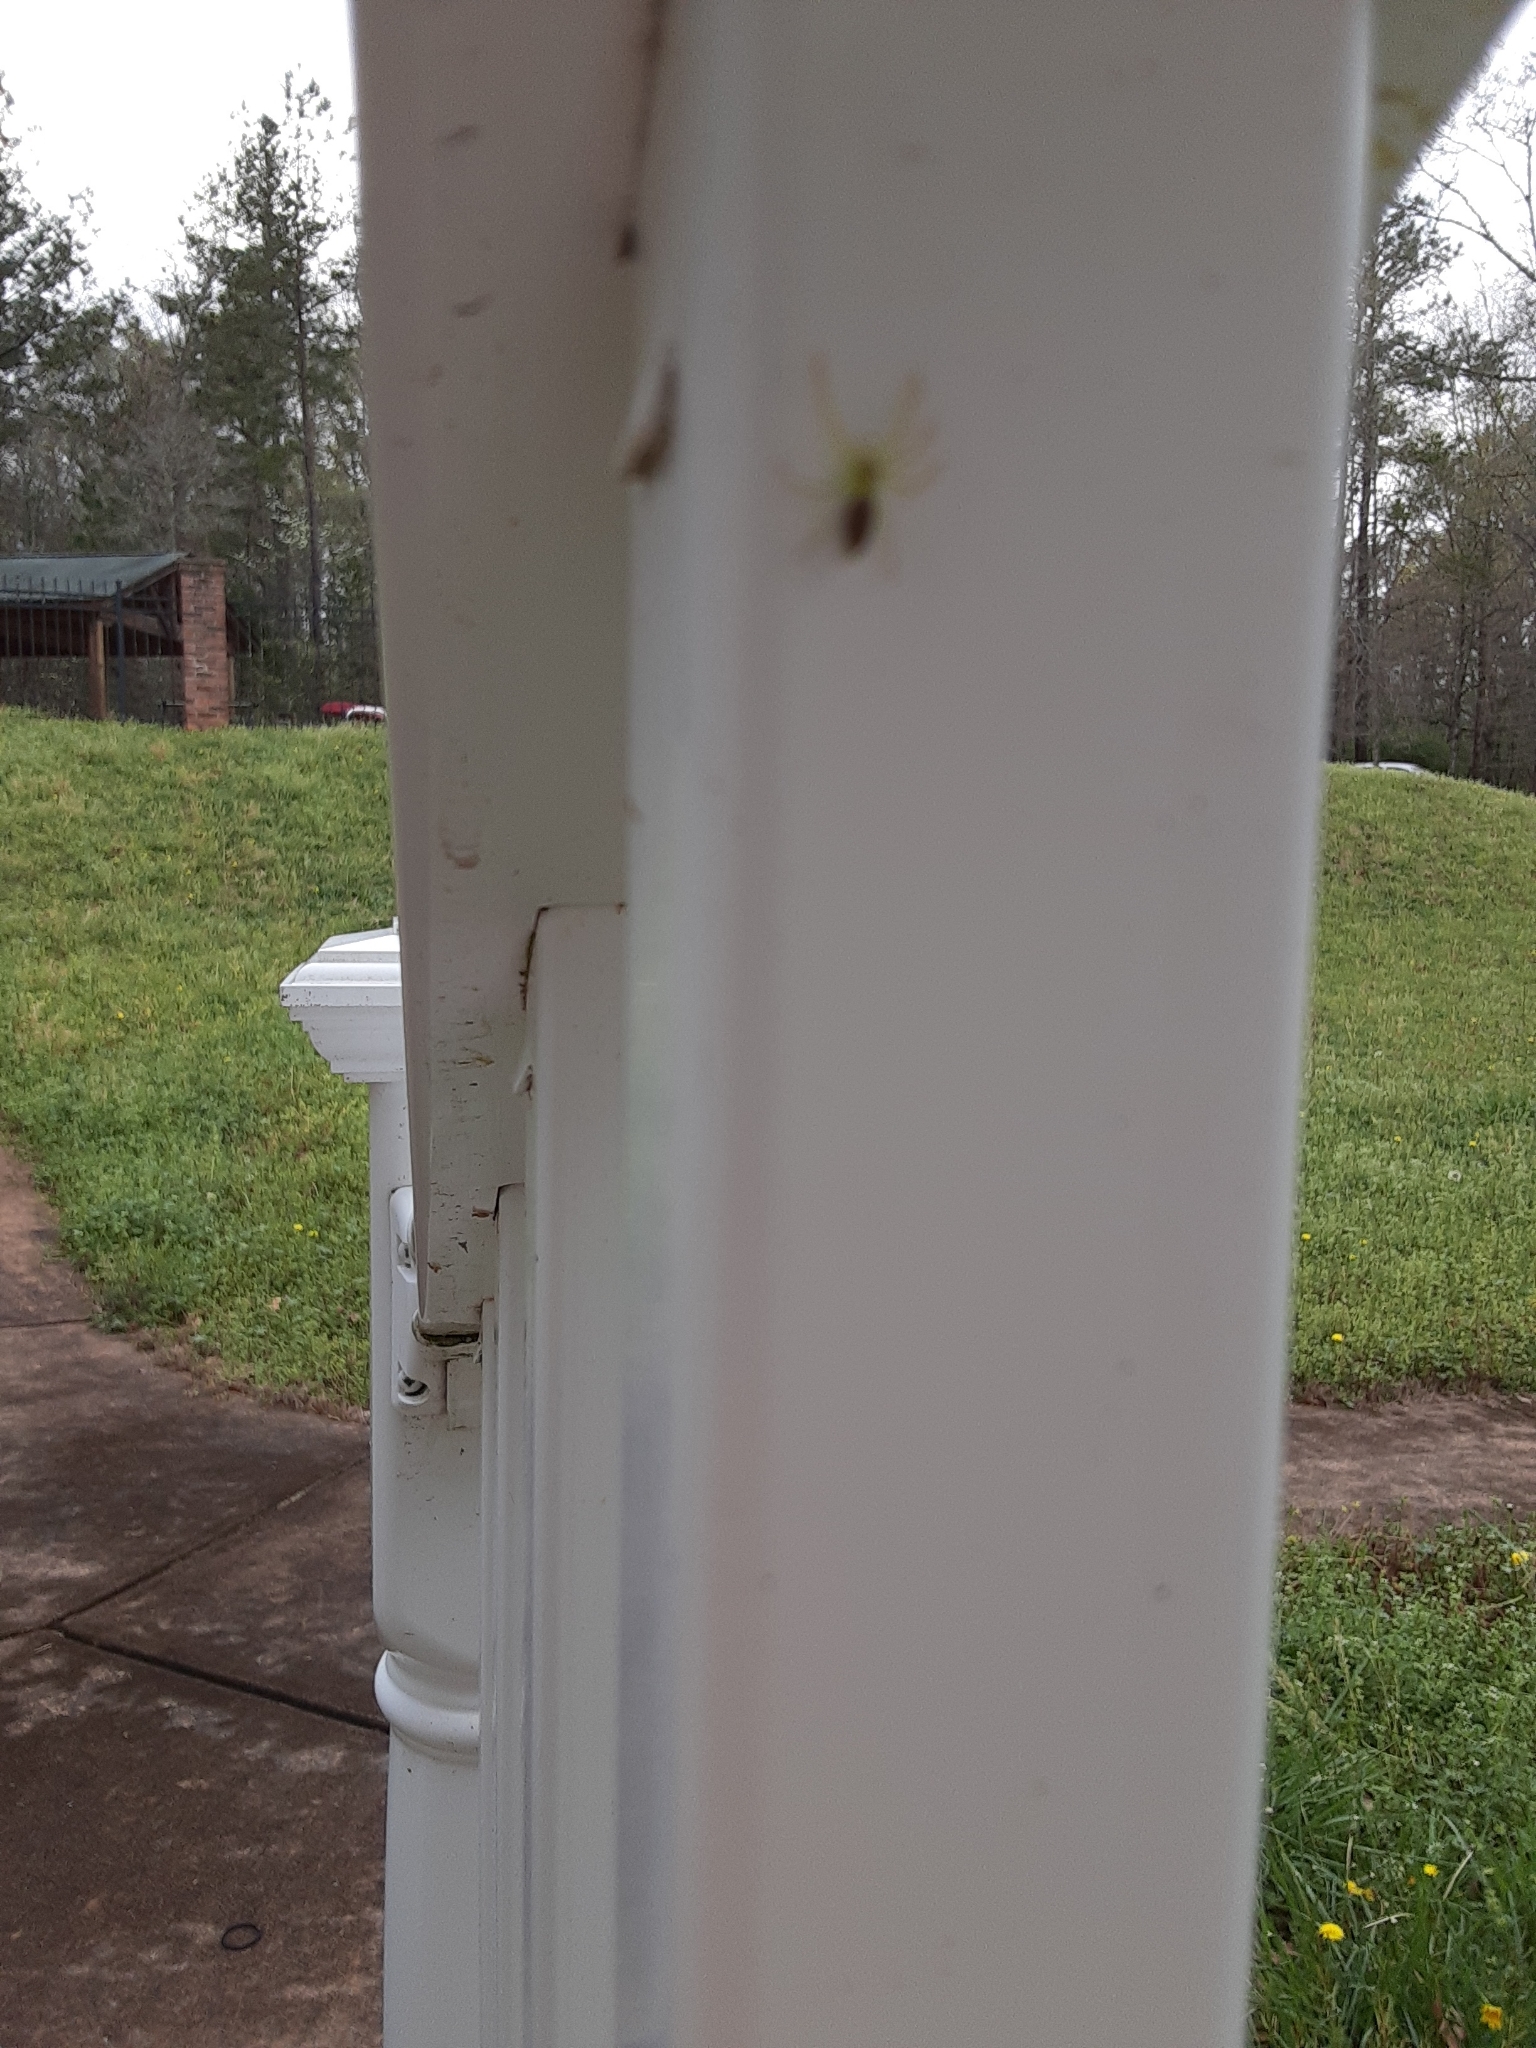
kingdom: Animalia
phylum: Arthropoda
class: Arachnida
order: Araneae
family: Salticidae
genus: Lyssomanes
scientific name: Lyssomanes viridis
